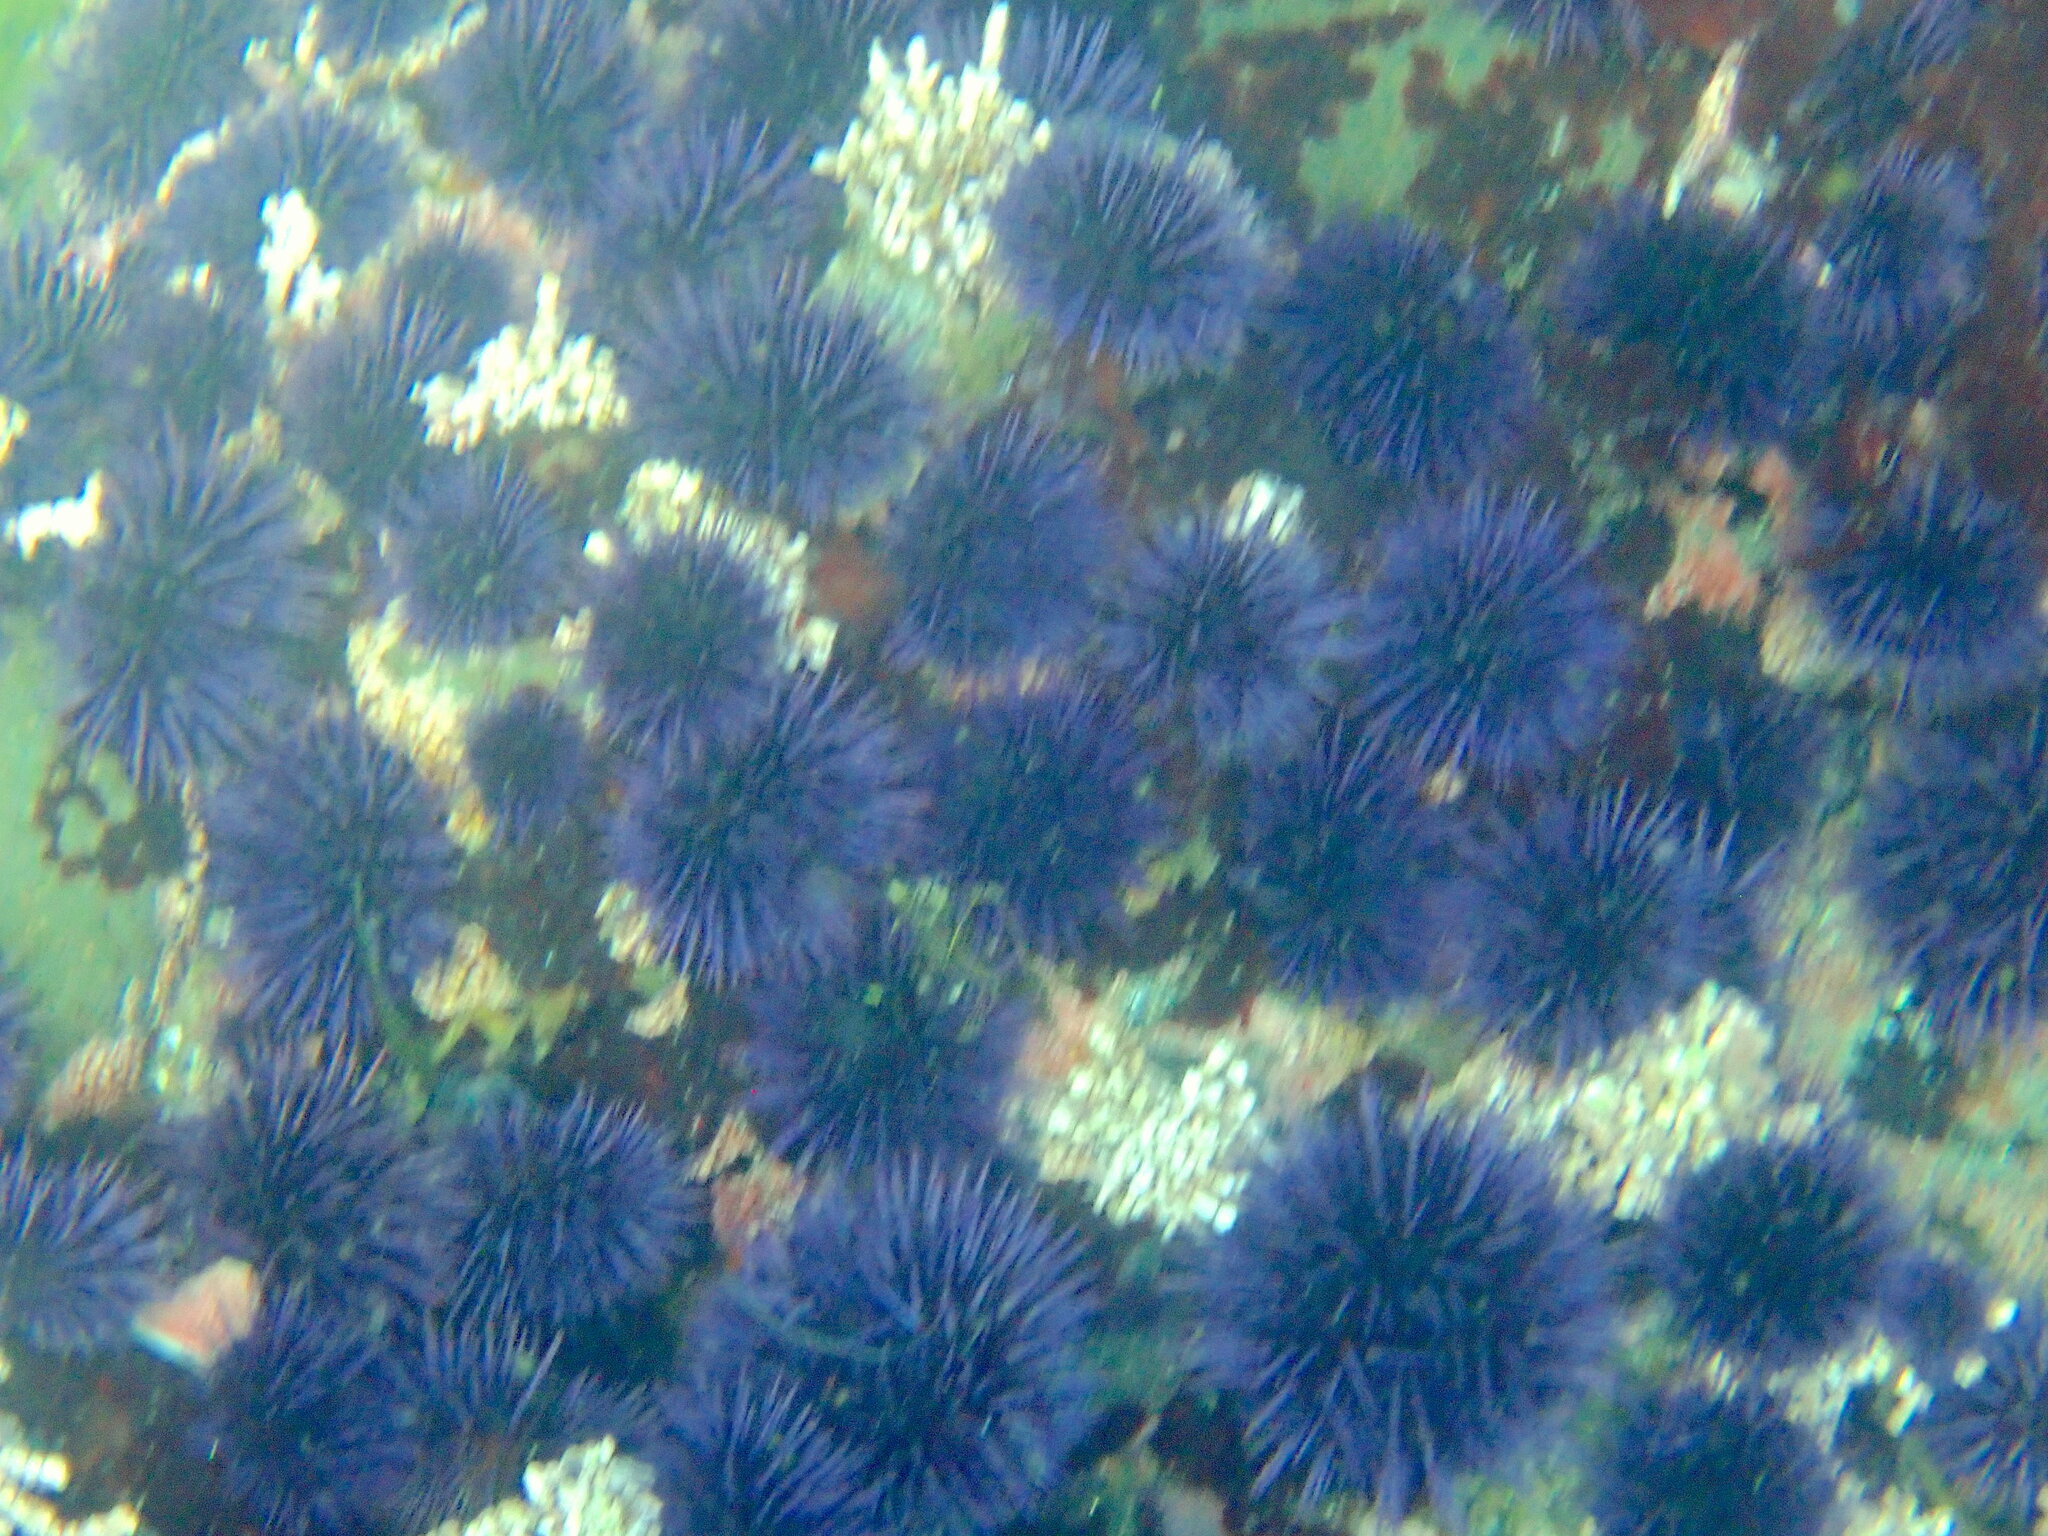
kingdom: Animalia
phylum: Echinodermata
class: Echinoidea
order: Camarodonta
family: Strongylocentrotidae
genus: Strongylocentrotus
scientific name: Strongylocentrotus purpuratus
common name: Purple sea urchin
